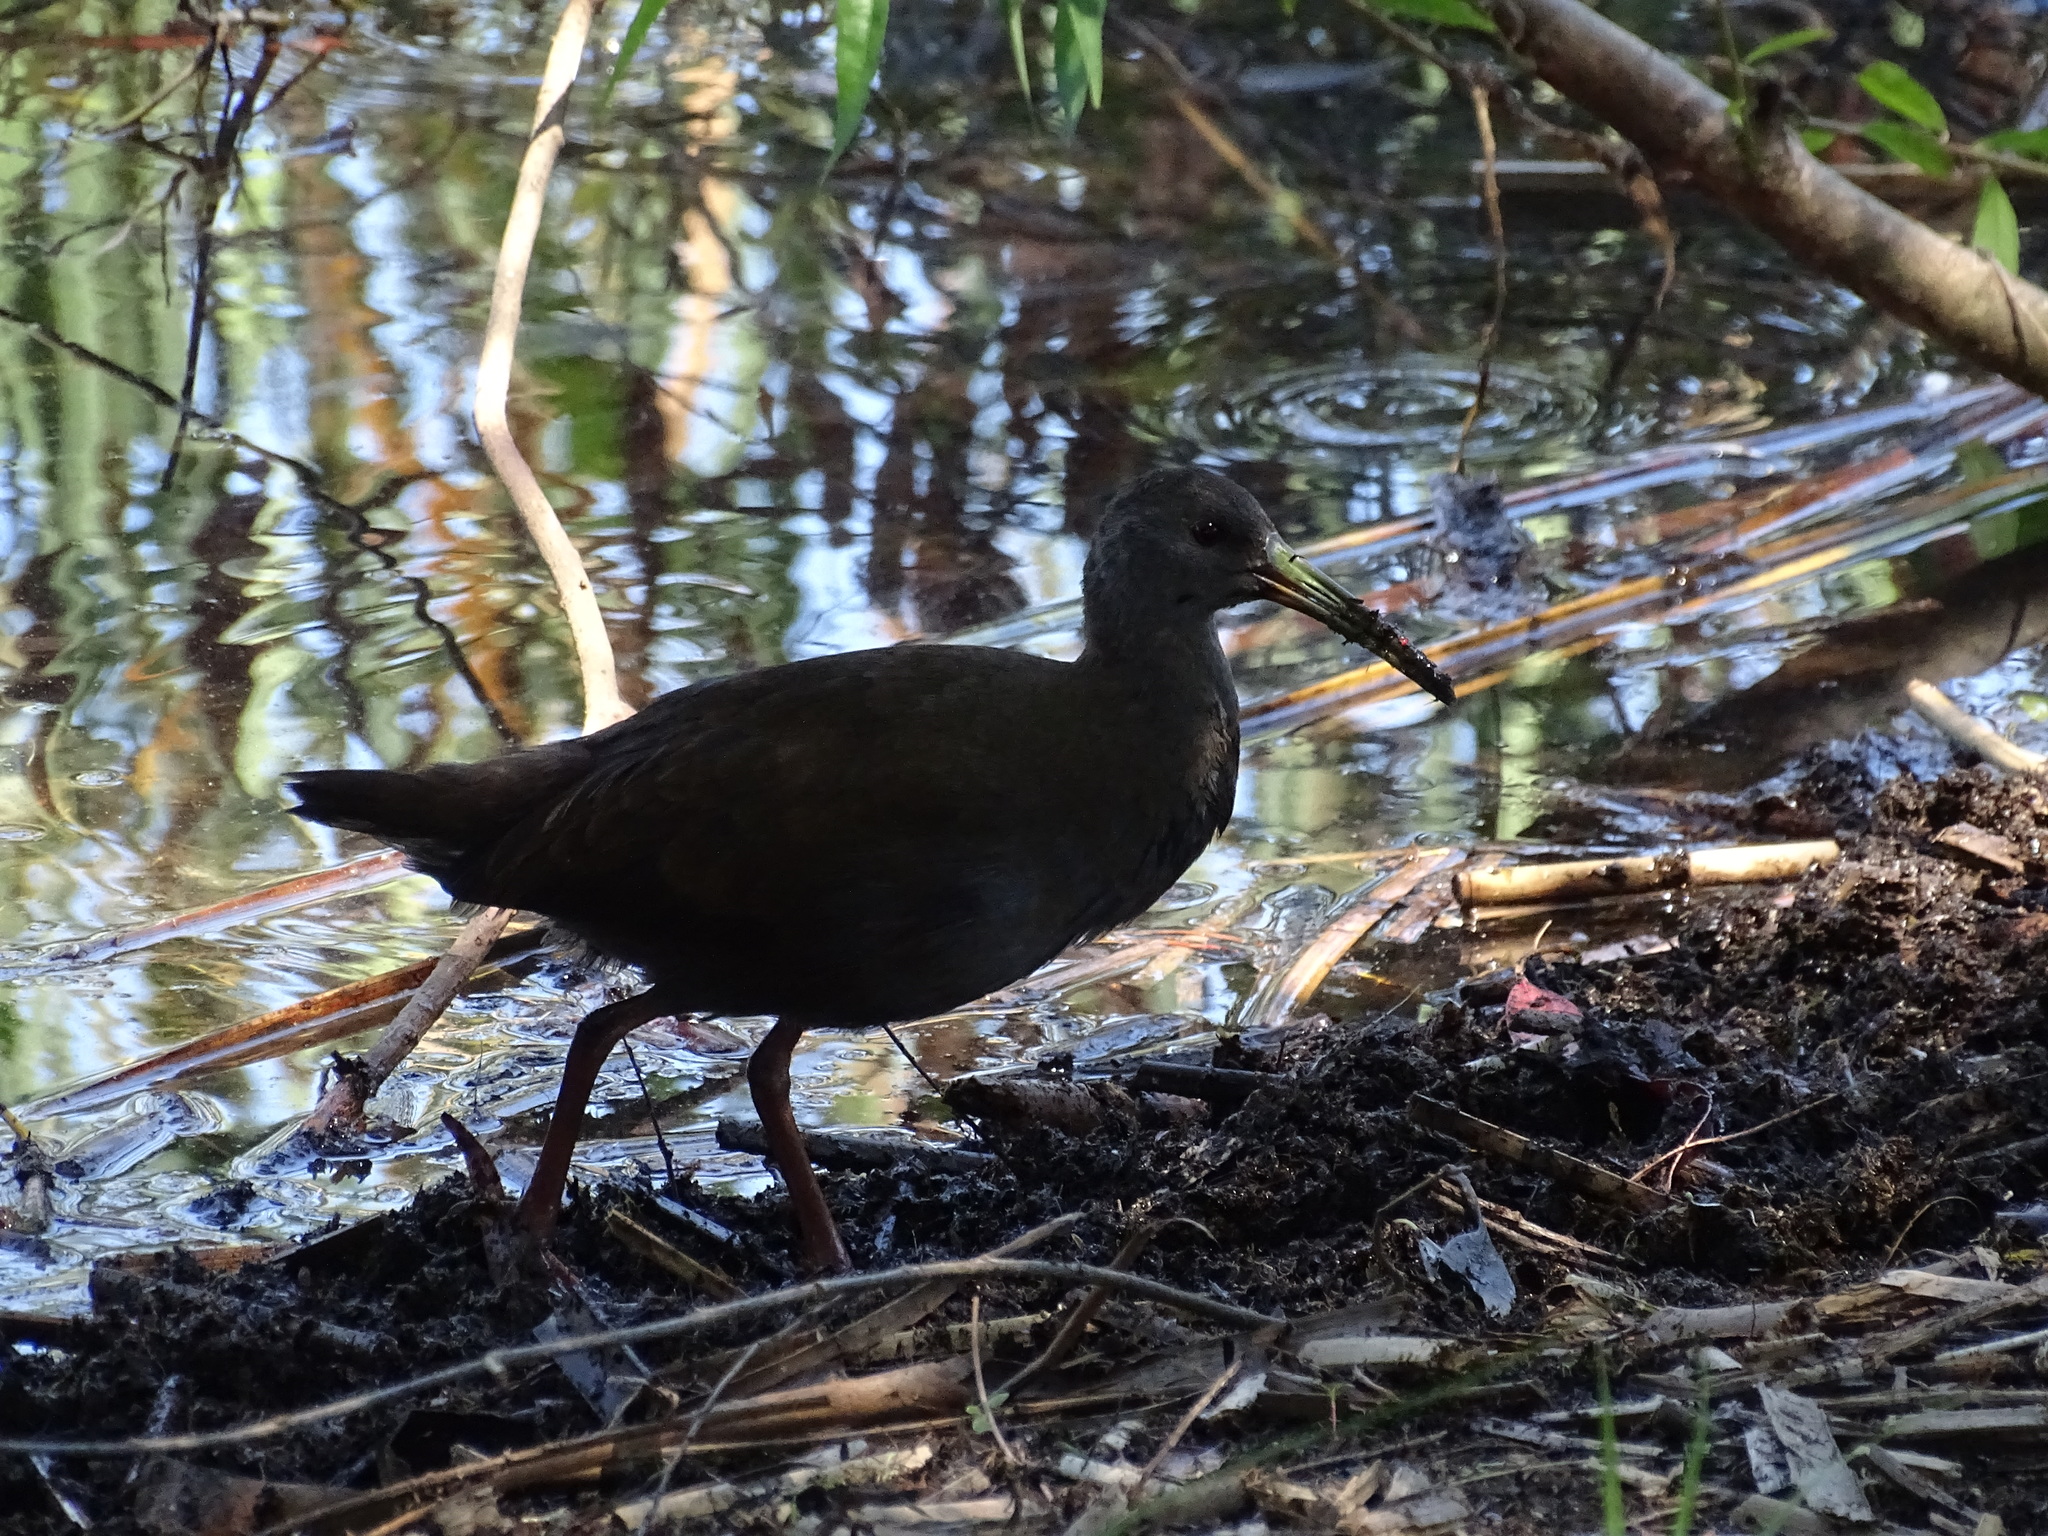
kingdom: Animalia
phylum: Chordata
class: Aves
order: Gruiformes
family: Rallidae
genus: Pardirallus
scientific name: Pardirallus sanguinolentus
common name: Plumbeous rail
